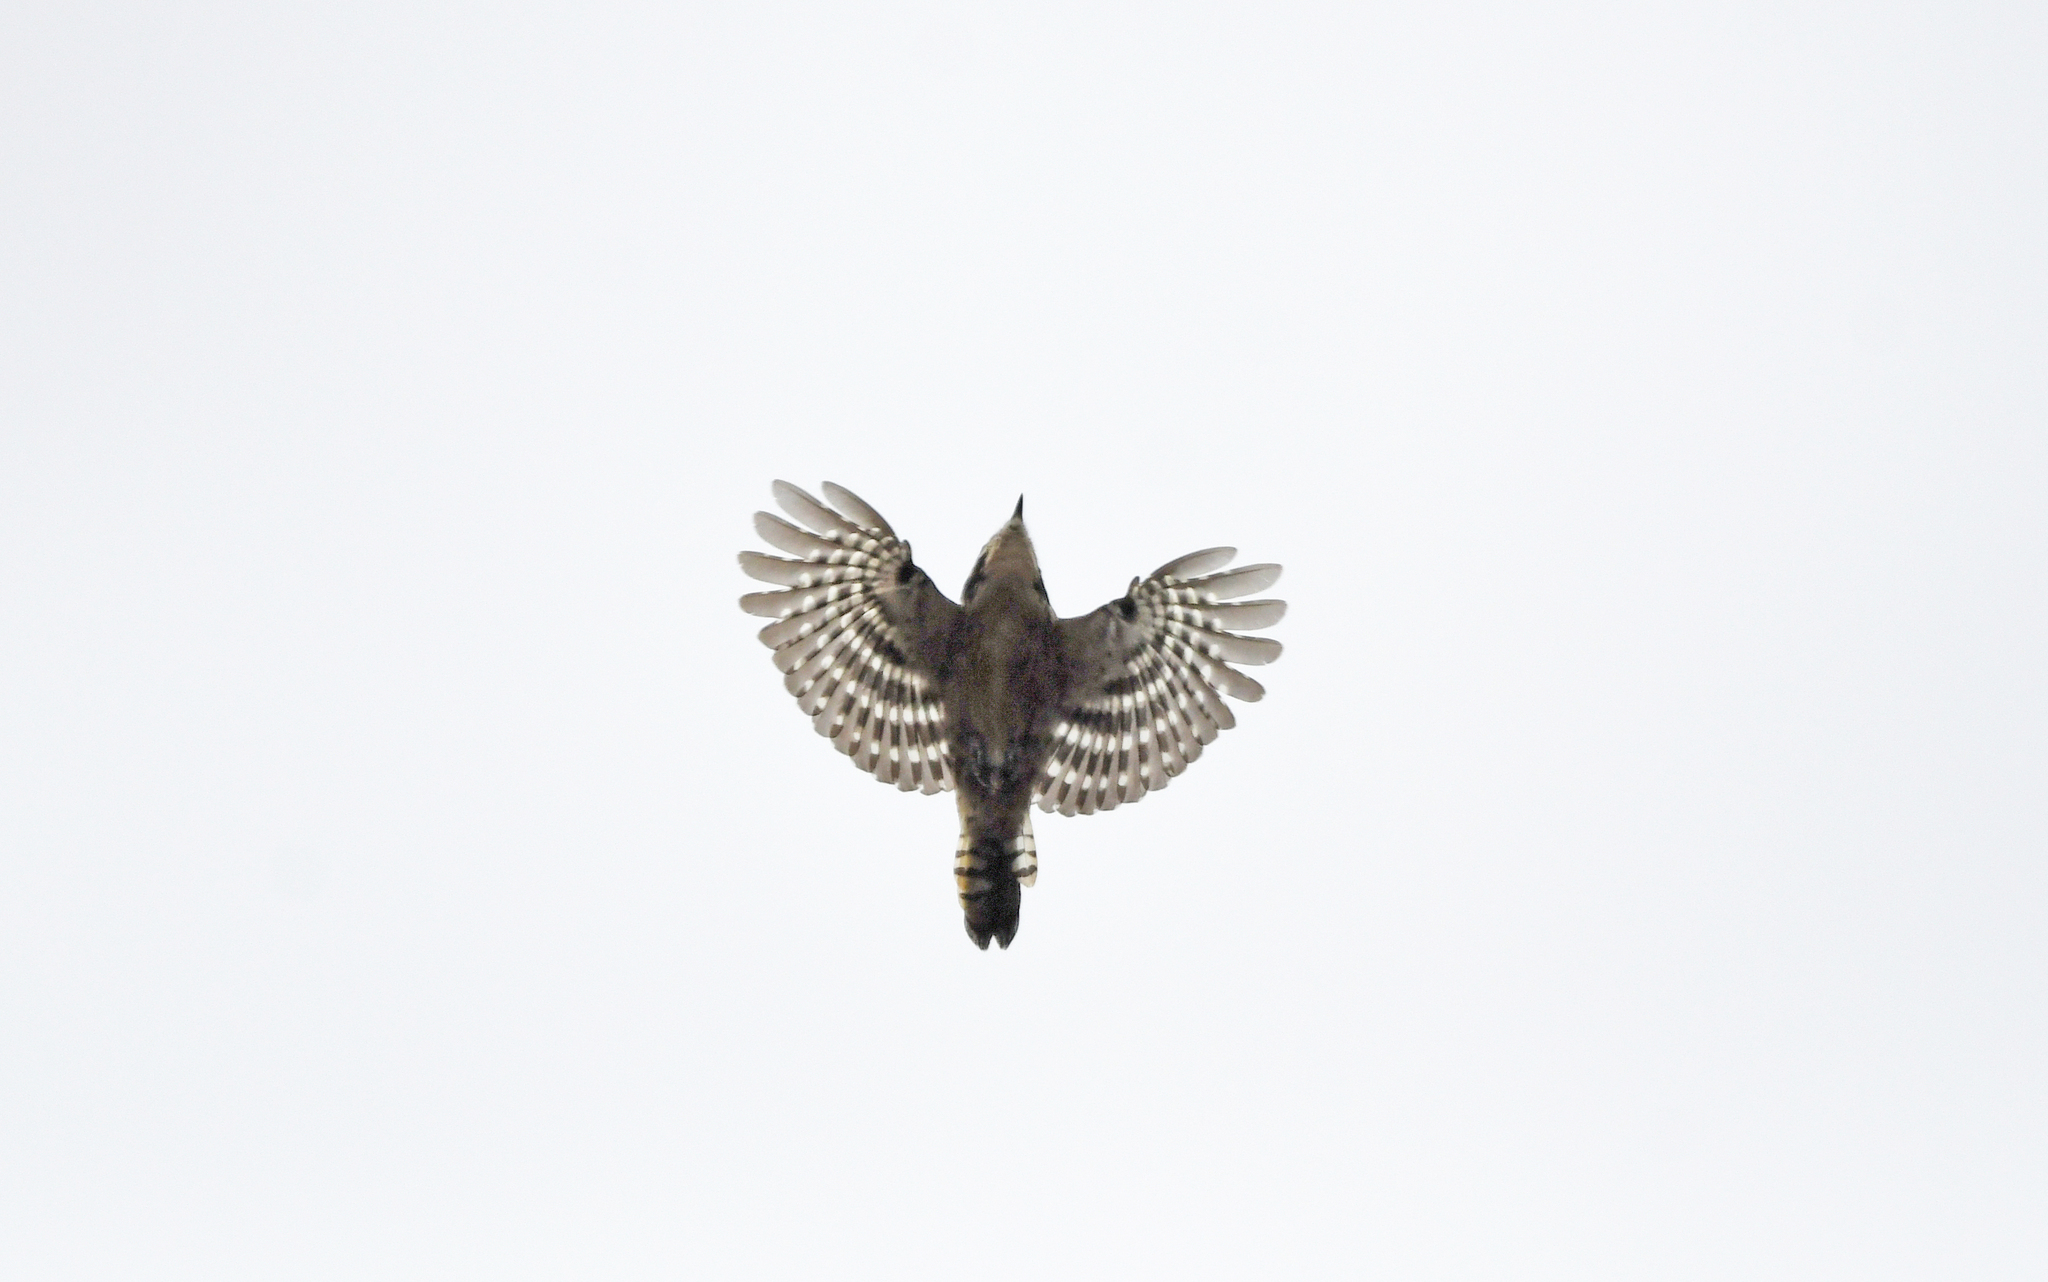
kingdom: Animalia
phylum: Chordata
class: Aves
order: Piciformes
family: Picidae
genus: Dryobates
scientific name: Dryobates minor
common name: Lesser spotted woodpecker
